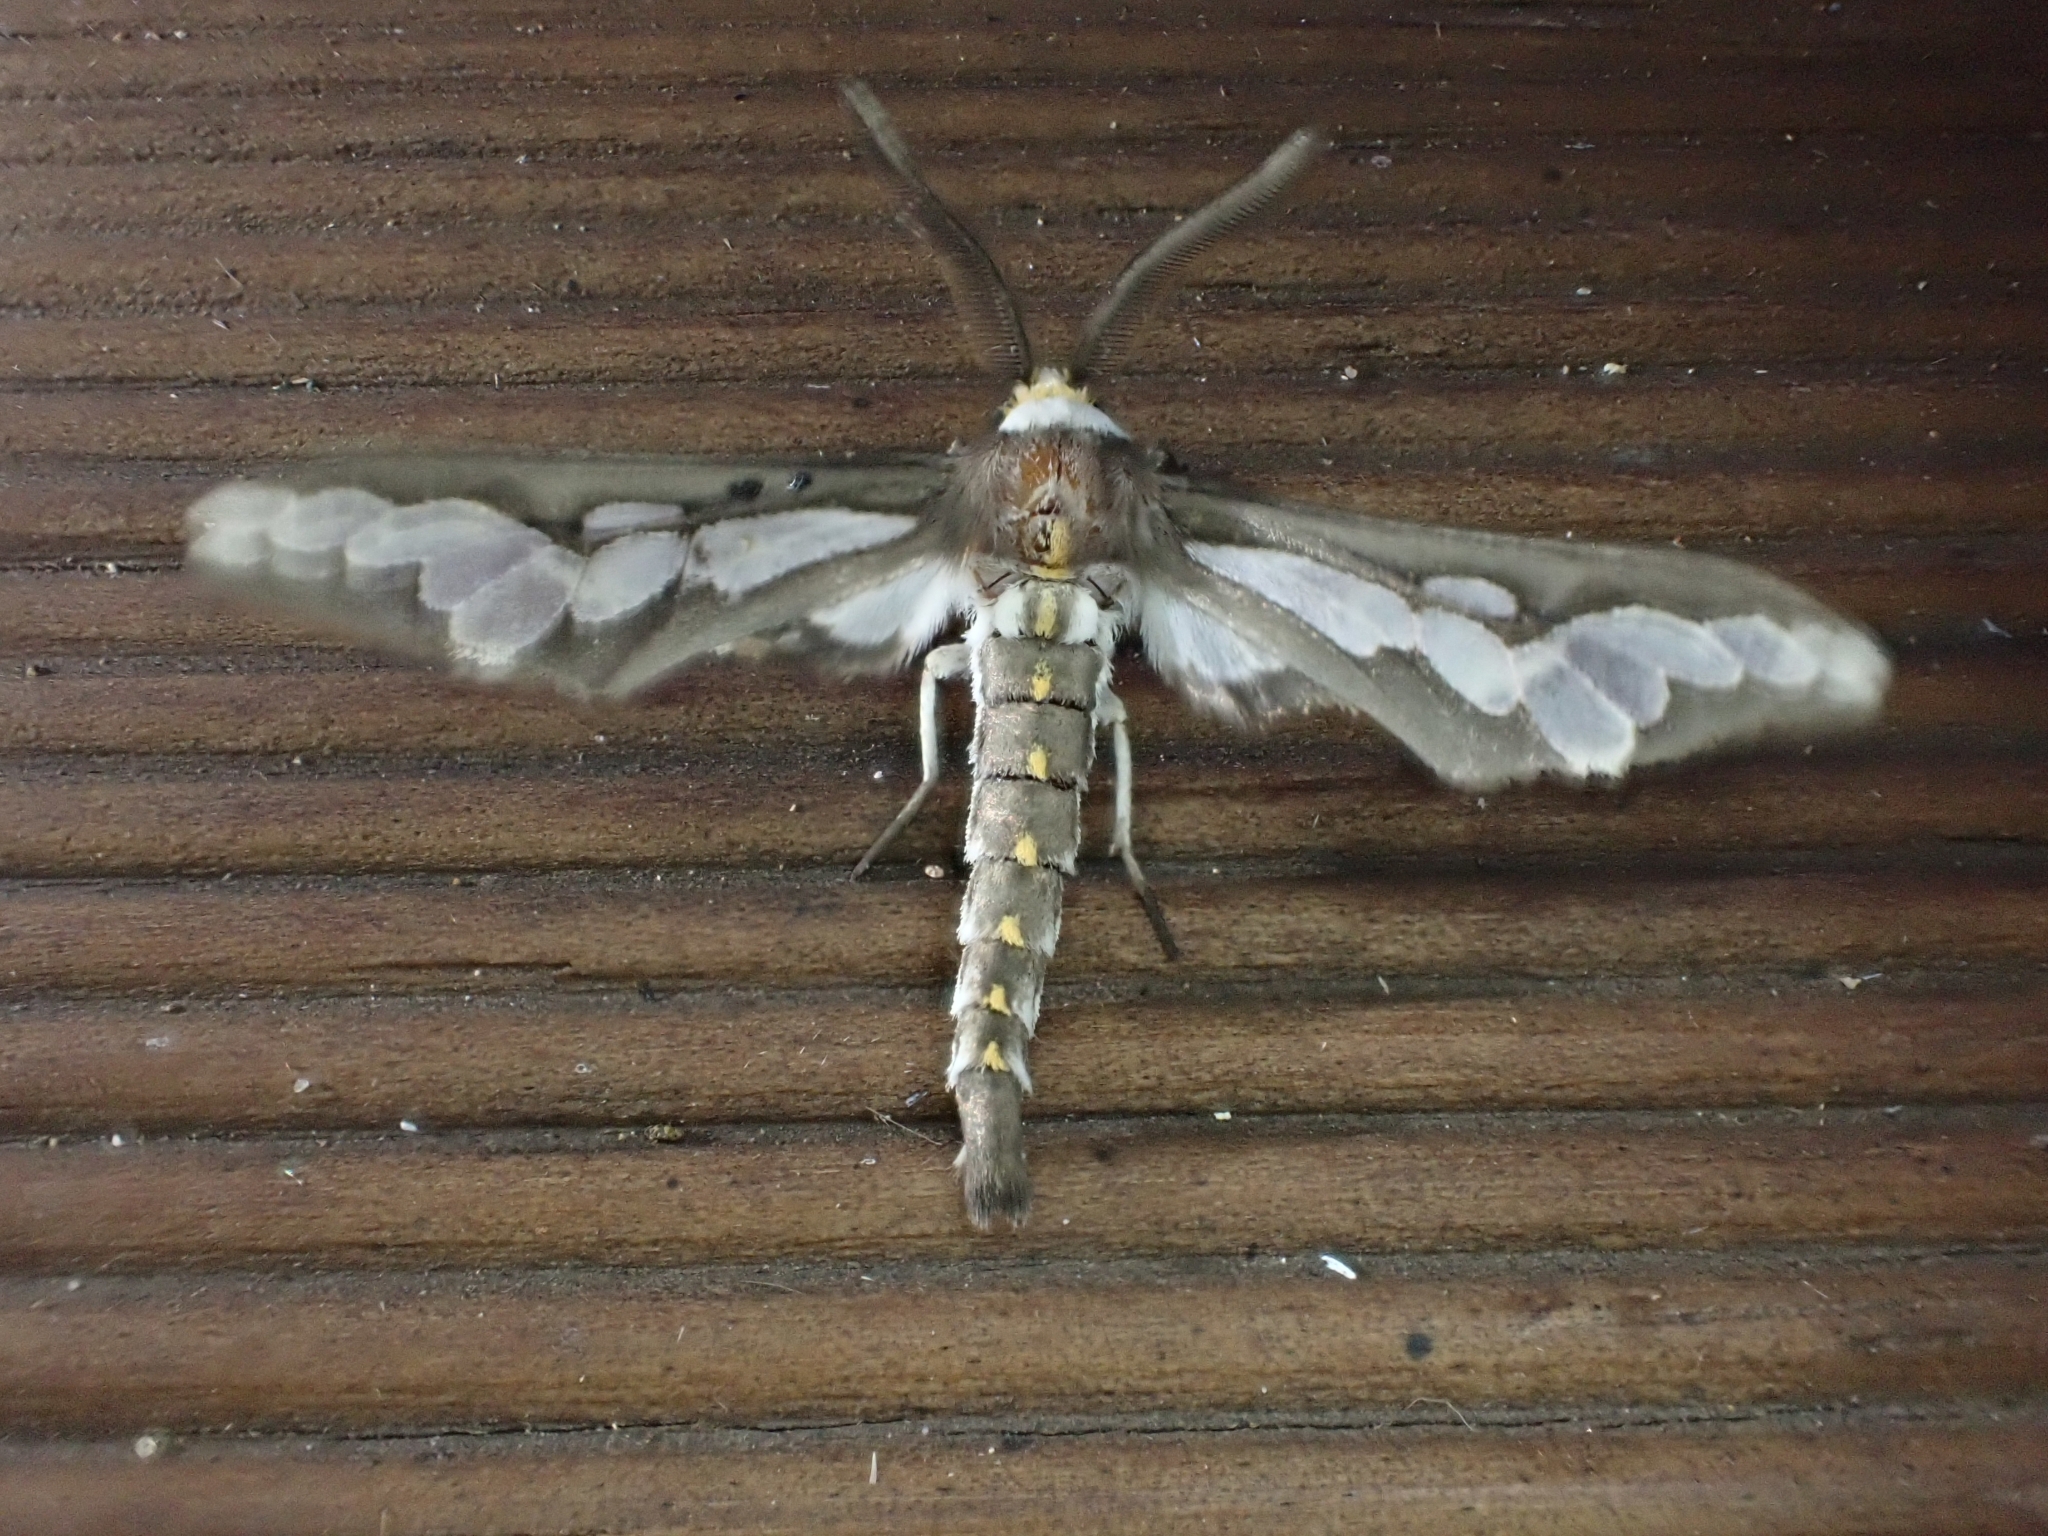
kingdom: Animalia
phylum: Arthropoda
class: Insecta
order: Lepidoptera
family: Erebidae
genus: Thyretes
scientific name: Thyretes caffra
